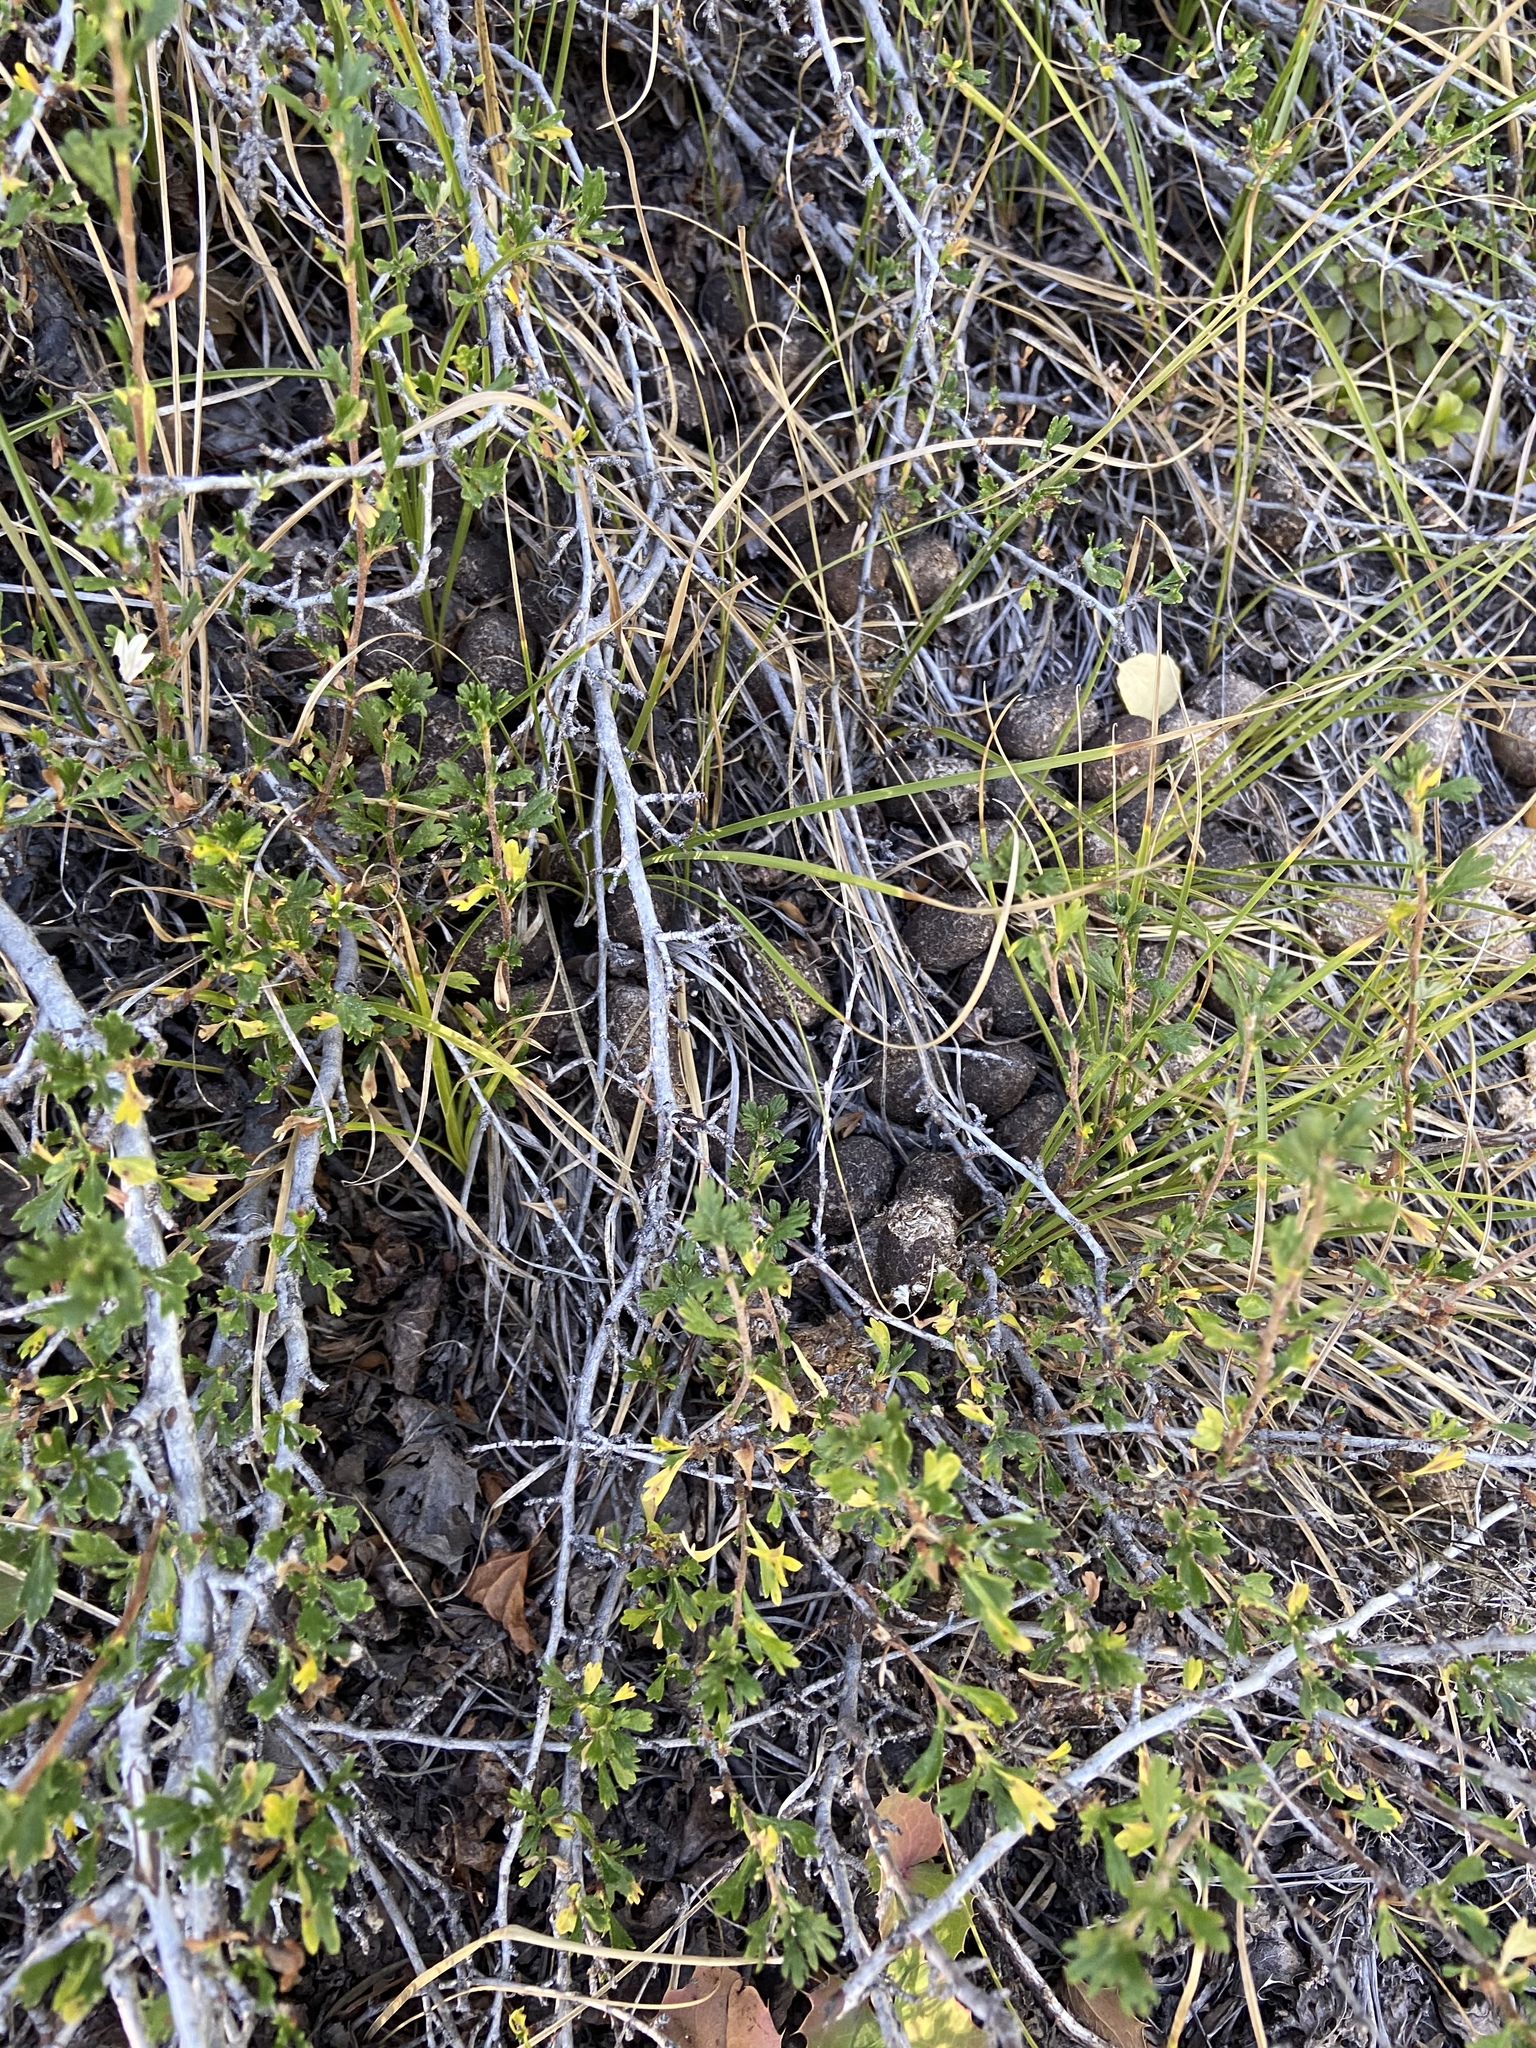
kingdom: Animalia
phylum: Chordata
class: Mammalia
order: Artiodactyla
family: Cervidae
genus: Alces
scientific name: Alces alces
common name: Moose
